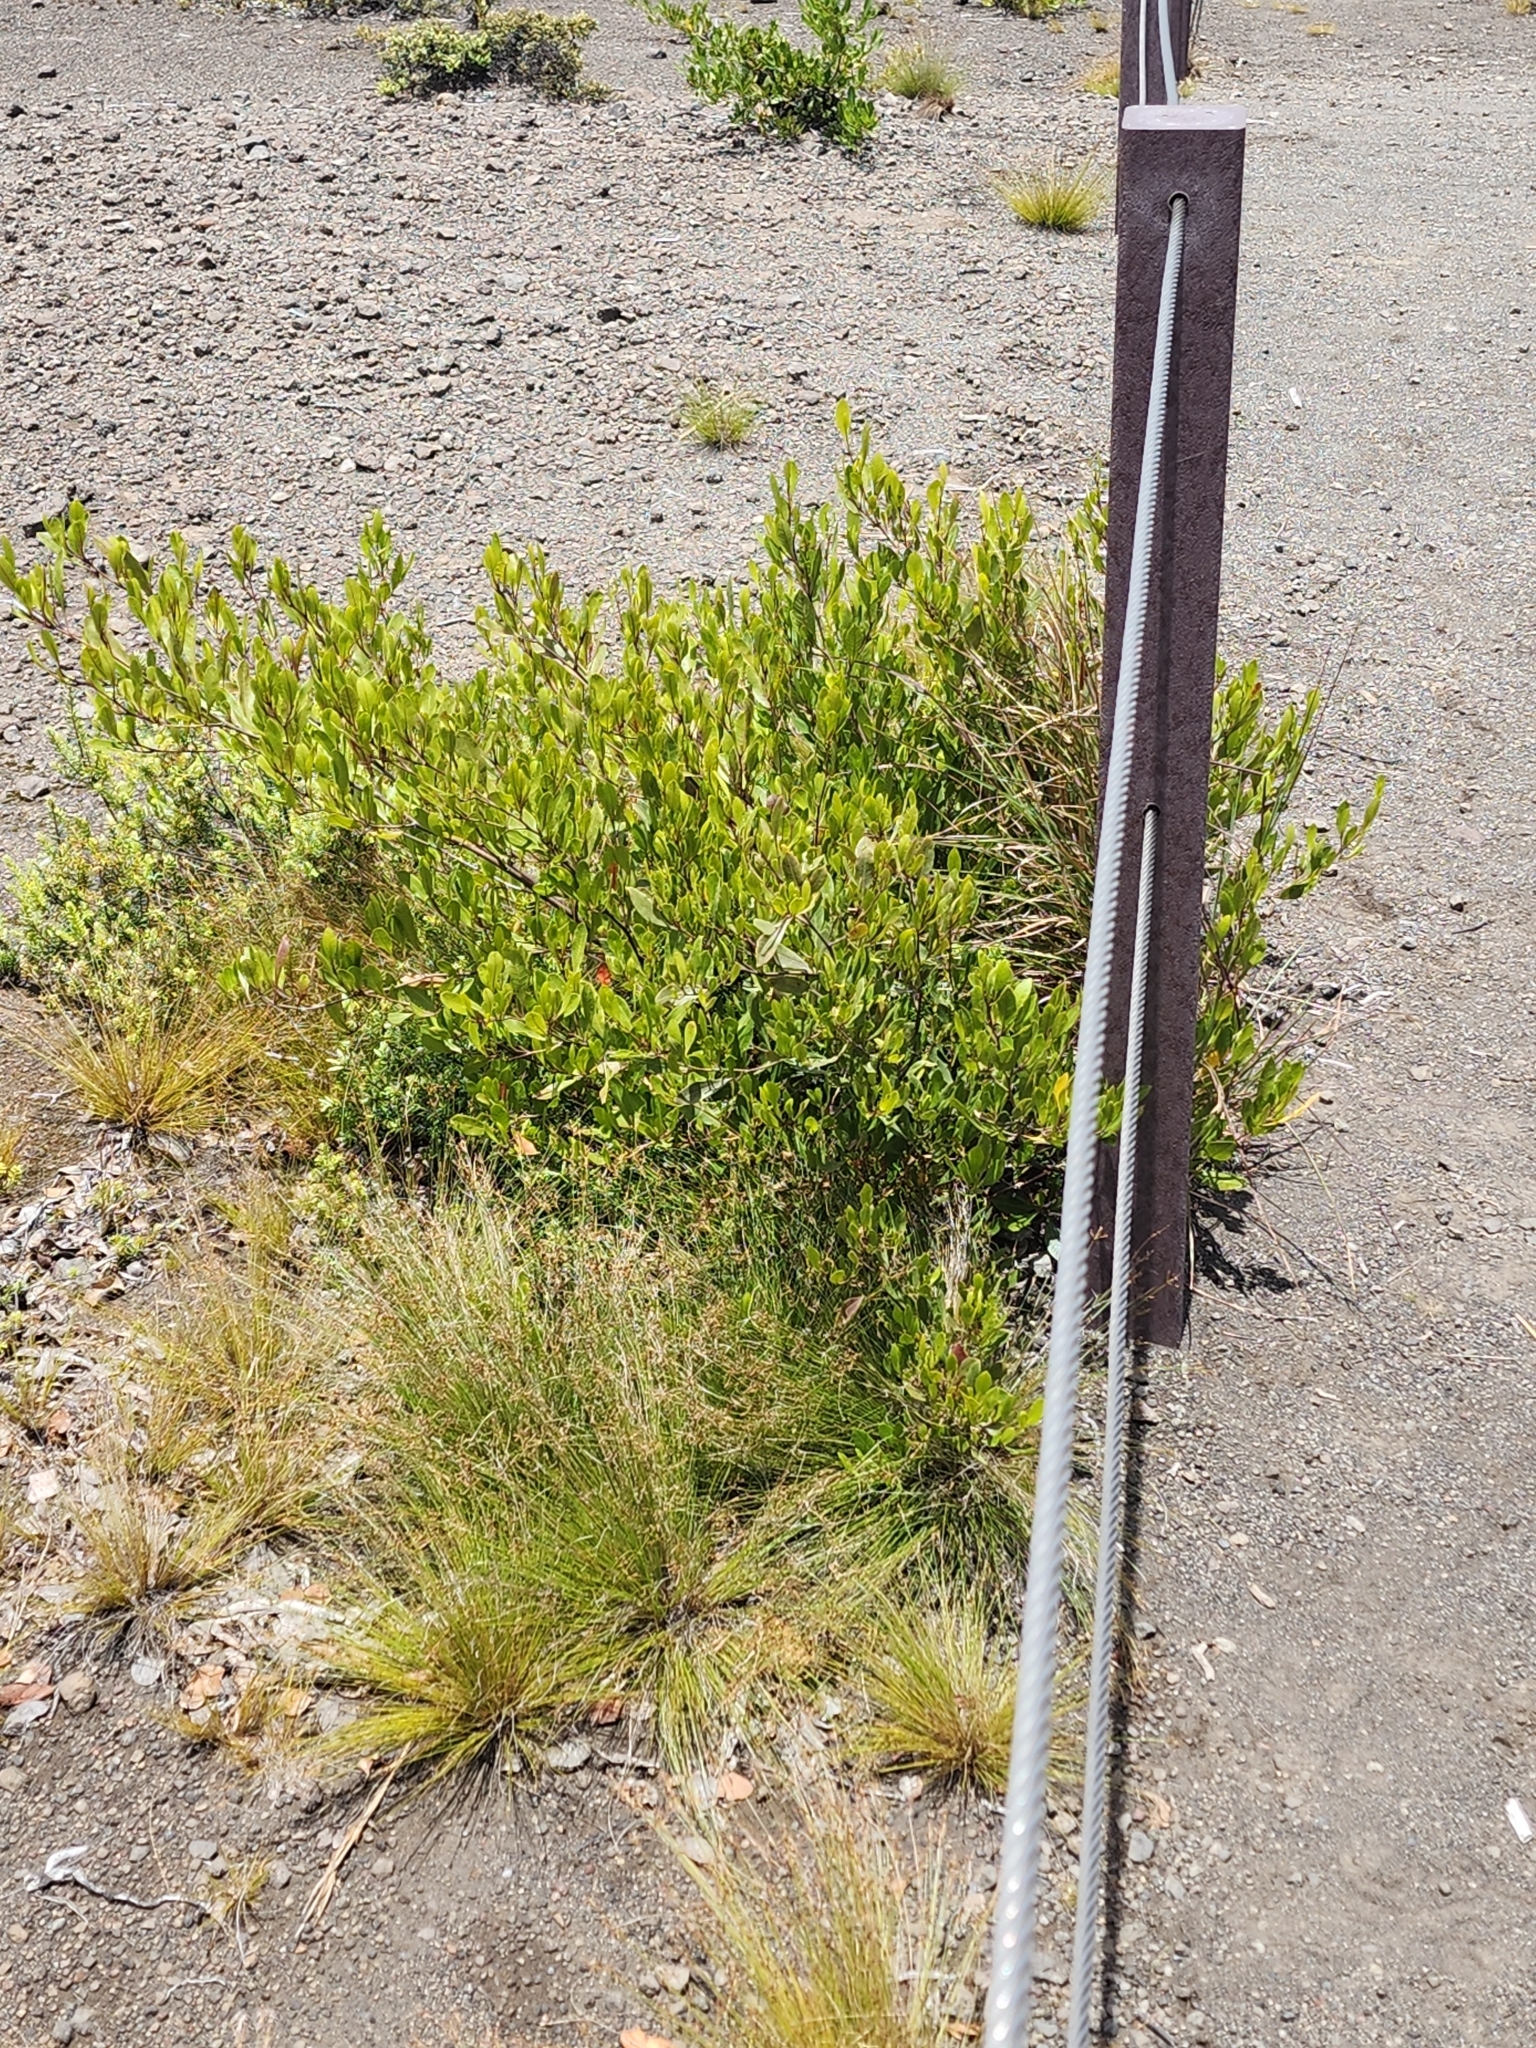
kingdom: Plantae
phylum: Tracheophyta
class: Magnoliopsida
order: Sapindales
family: Sapindaceae
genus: Dodonaea
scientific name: Dodonaea viscosa
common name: Hopbush
